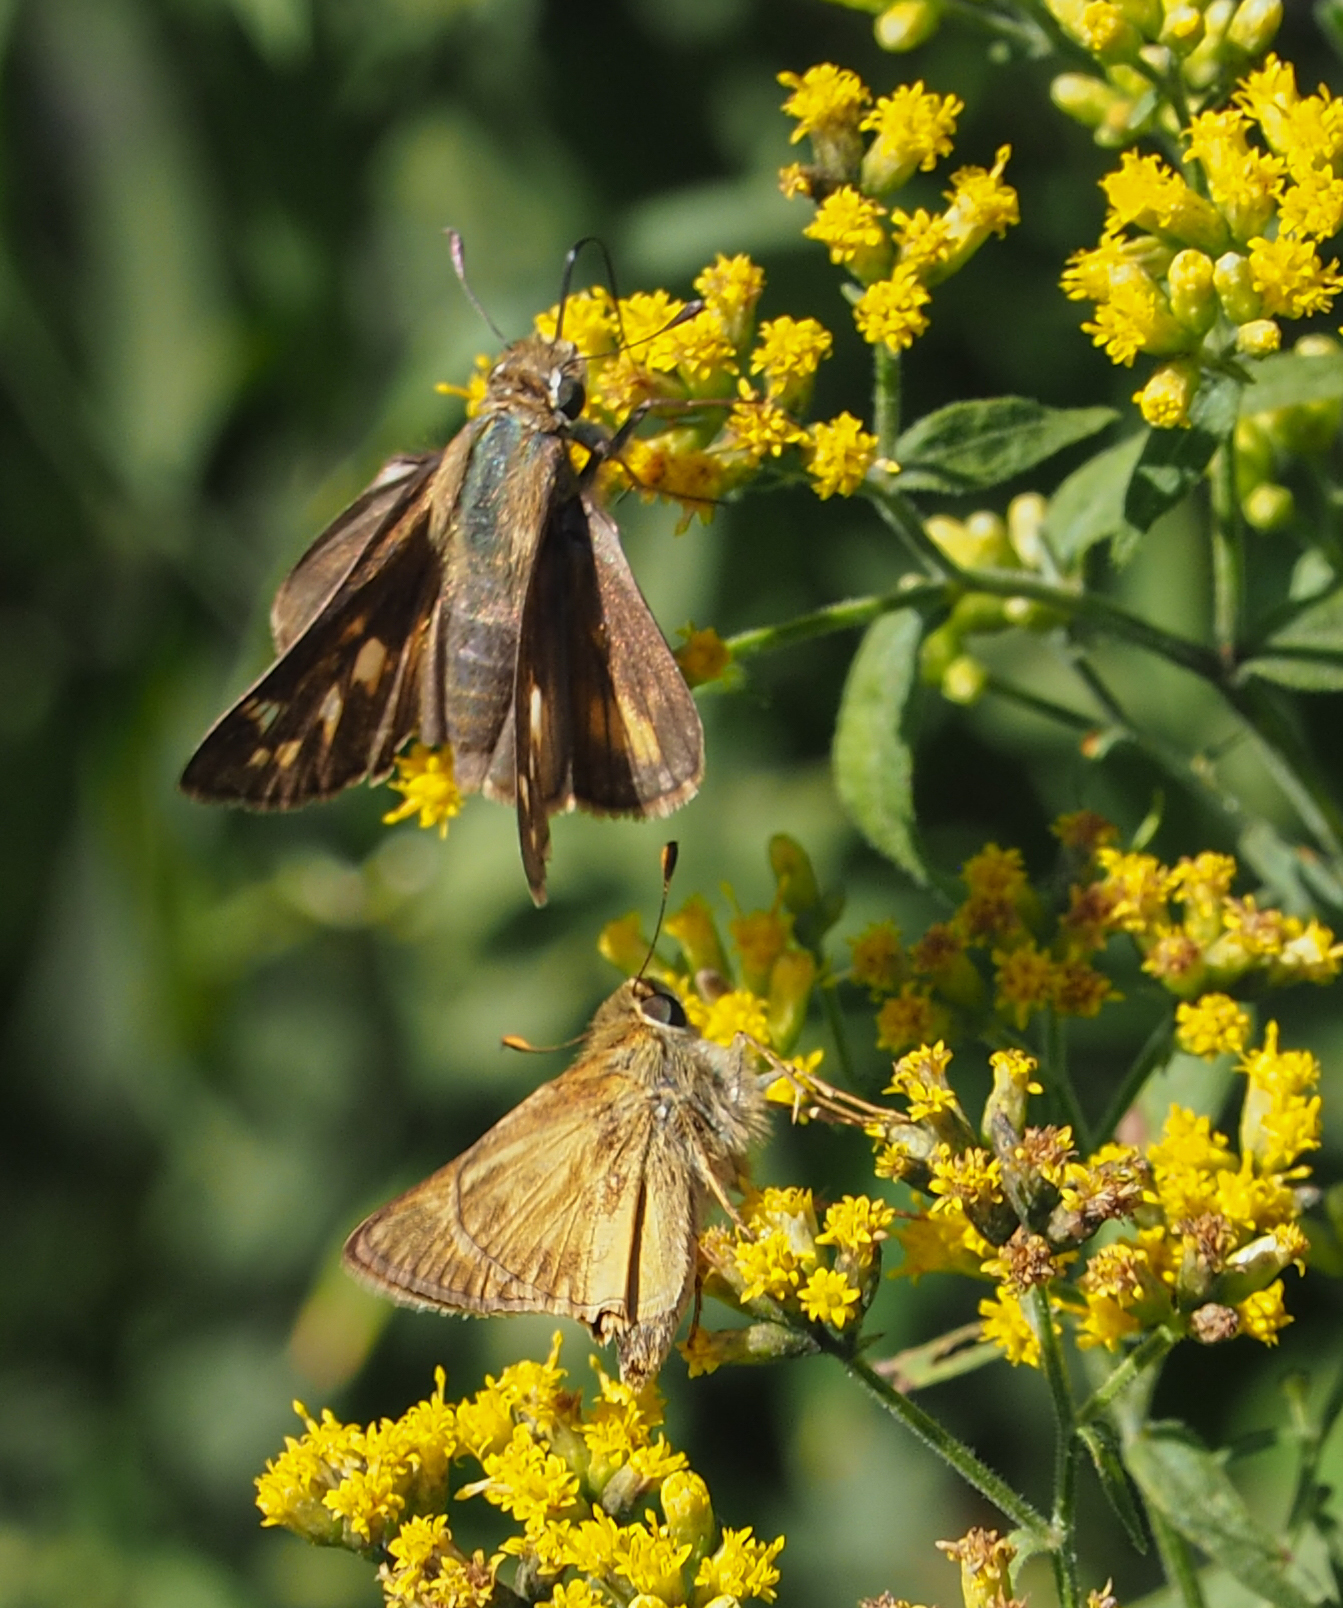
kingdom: Animalia
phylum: Arthropoda
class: Insecta
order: Lepidoptera
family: Hesperiidae
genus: Atalopedes
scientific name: Atalopedes
